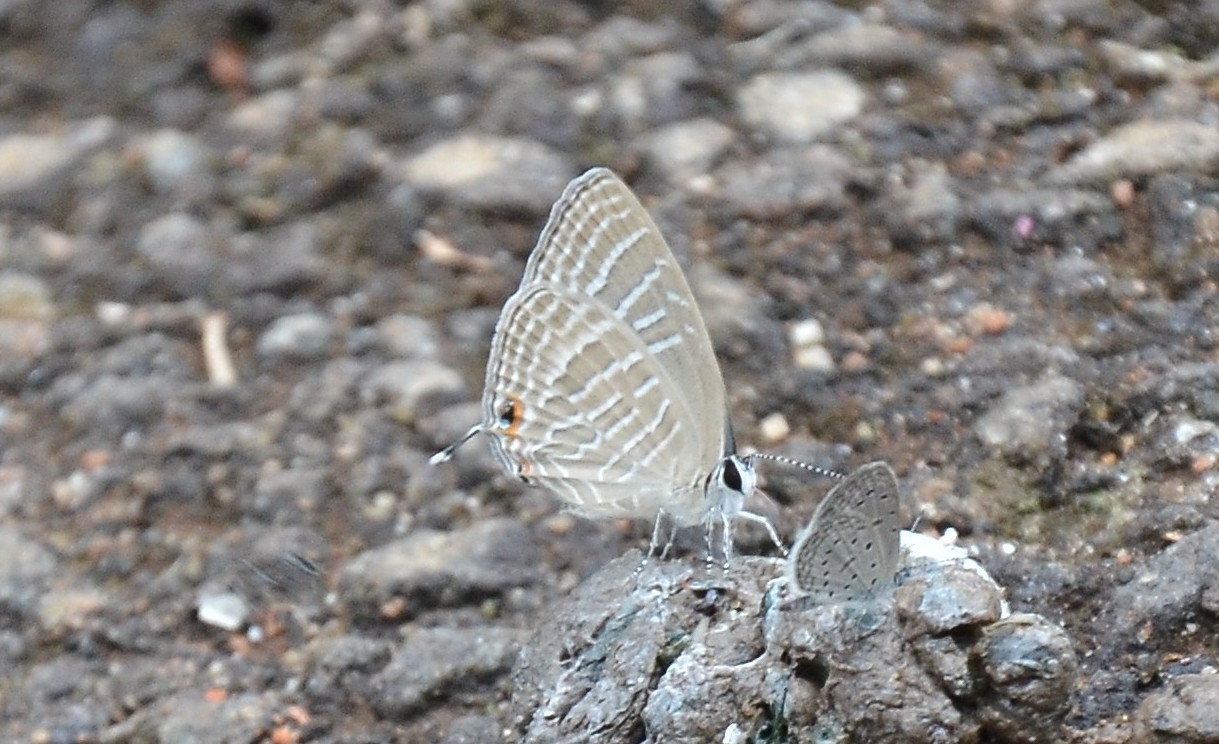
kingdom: Animalia
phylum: Arthropoda
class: Insecta
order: Lepidoptera
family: Lycaenidae
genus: Jamides
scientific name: Jamides celeno
